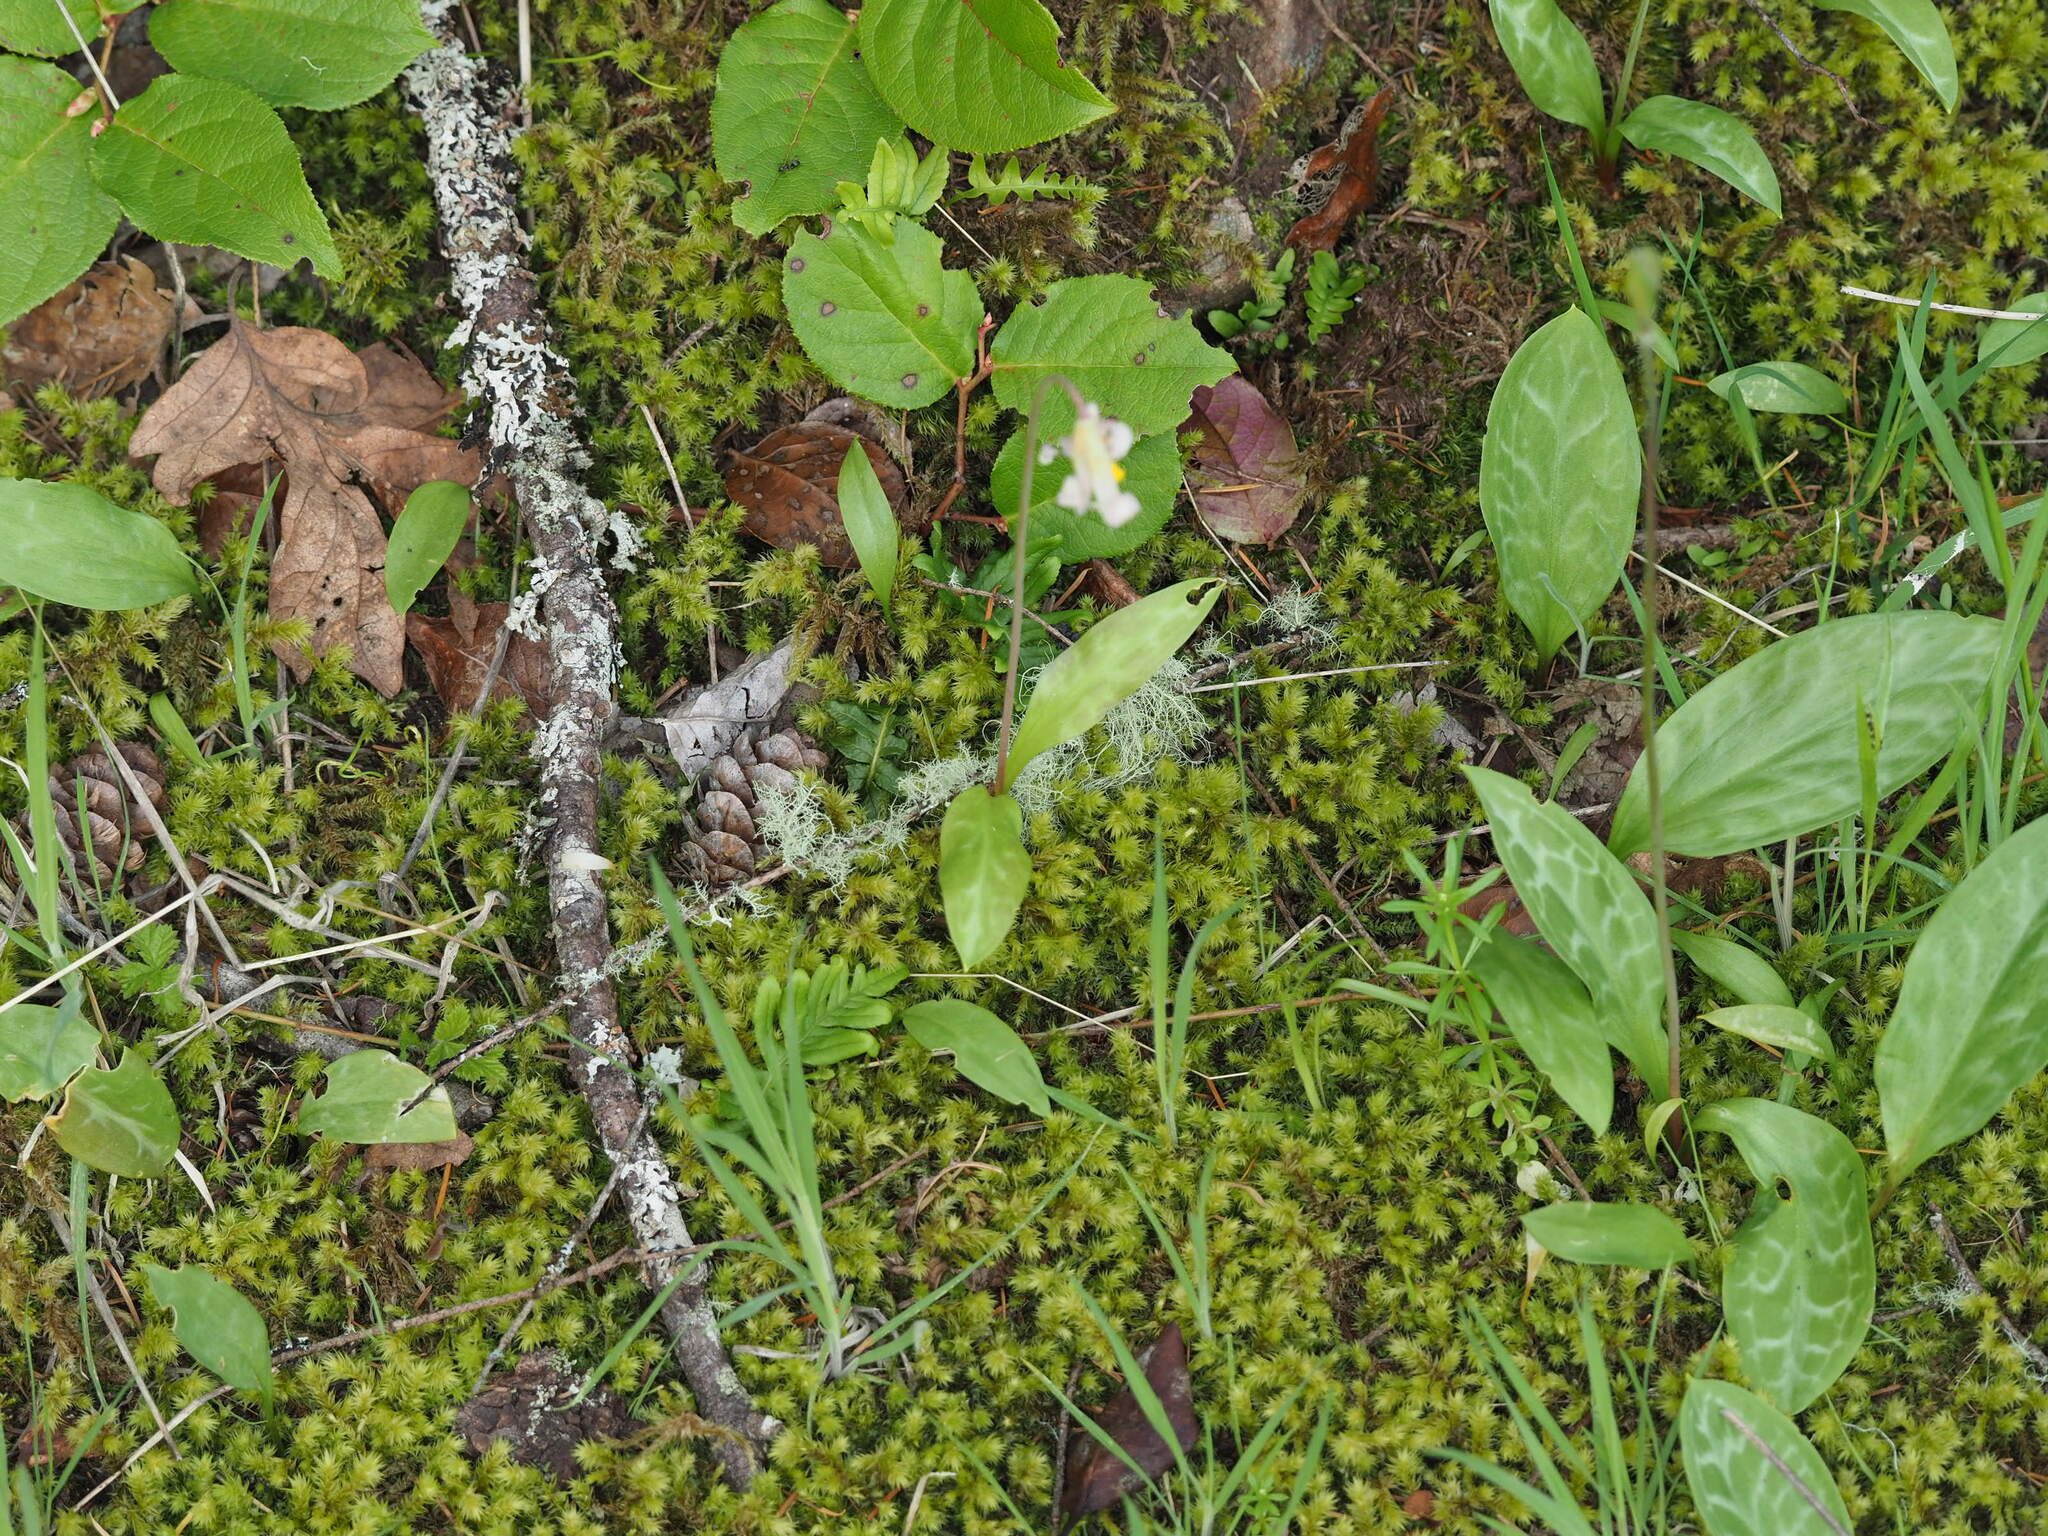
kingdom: Plantae
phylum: Tracheophyta
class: Liliopsida
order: Liliales
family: Liliaceae
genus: Erythronium
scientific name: Erythronium oregonum
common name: Giant adder's-tongue
